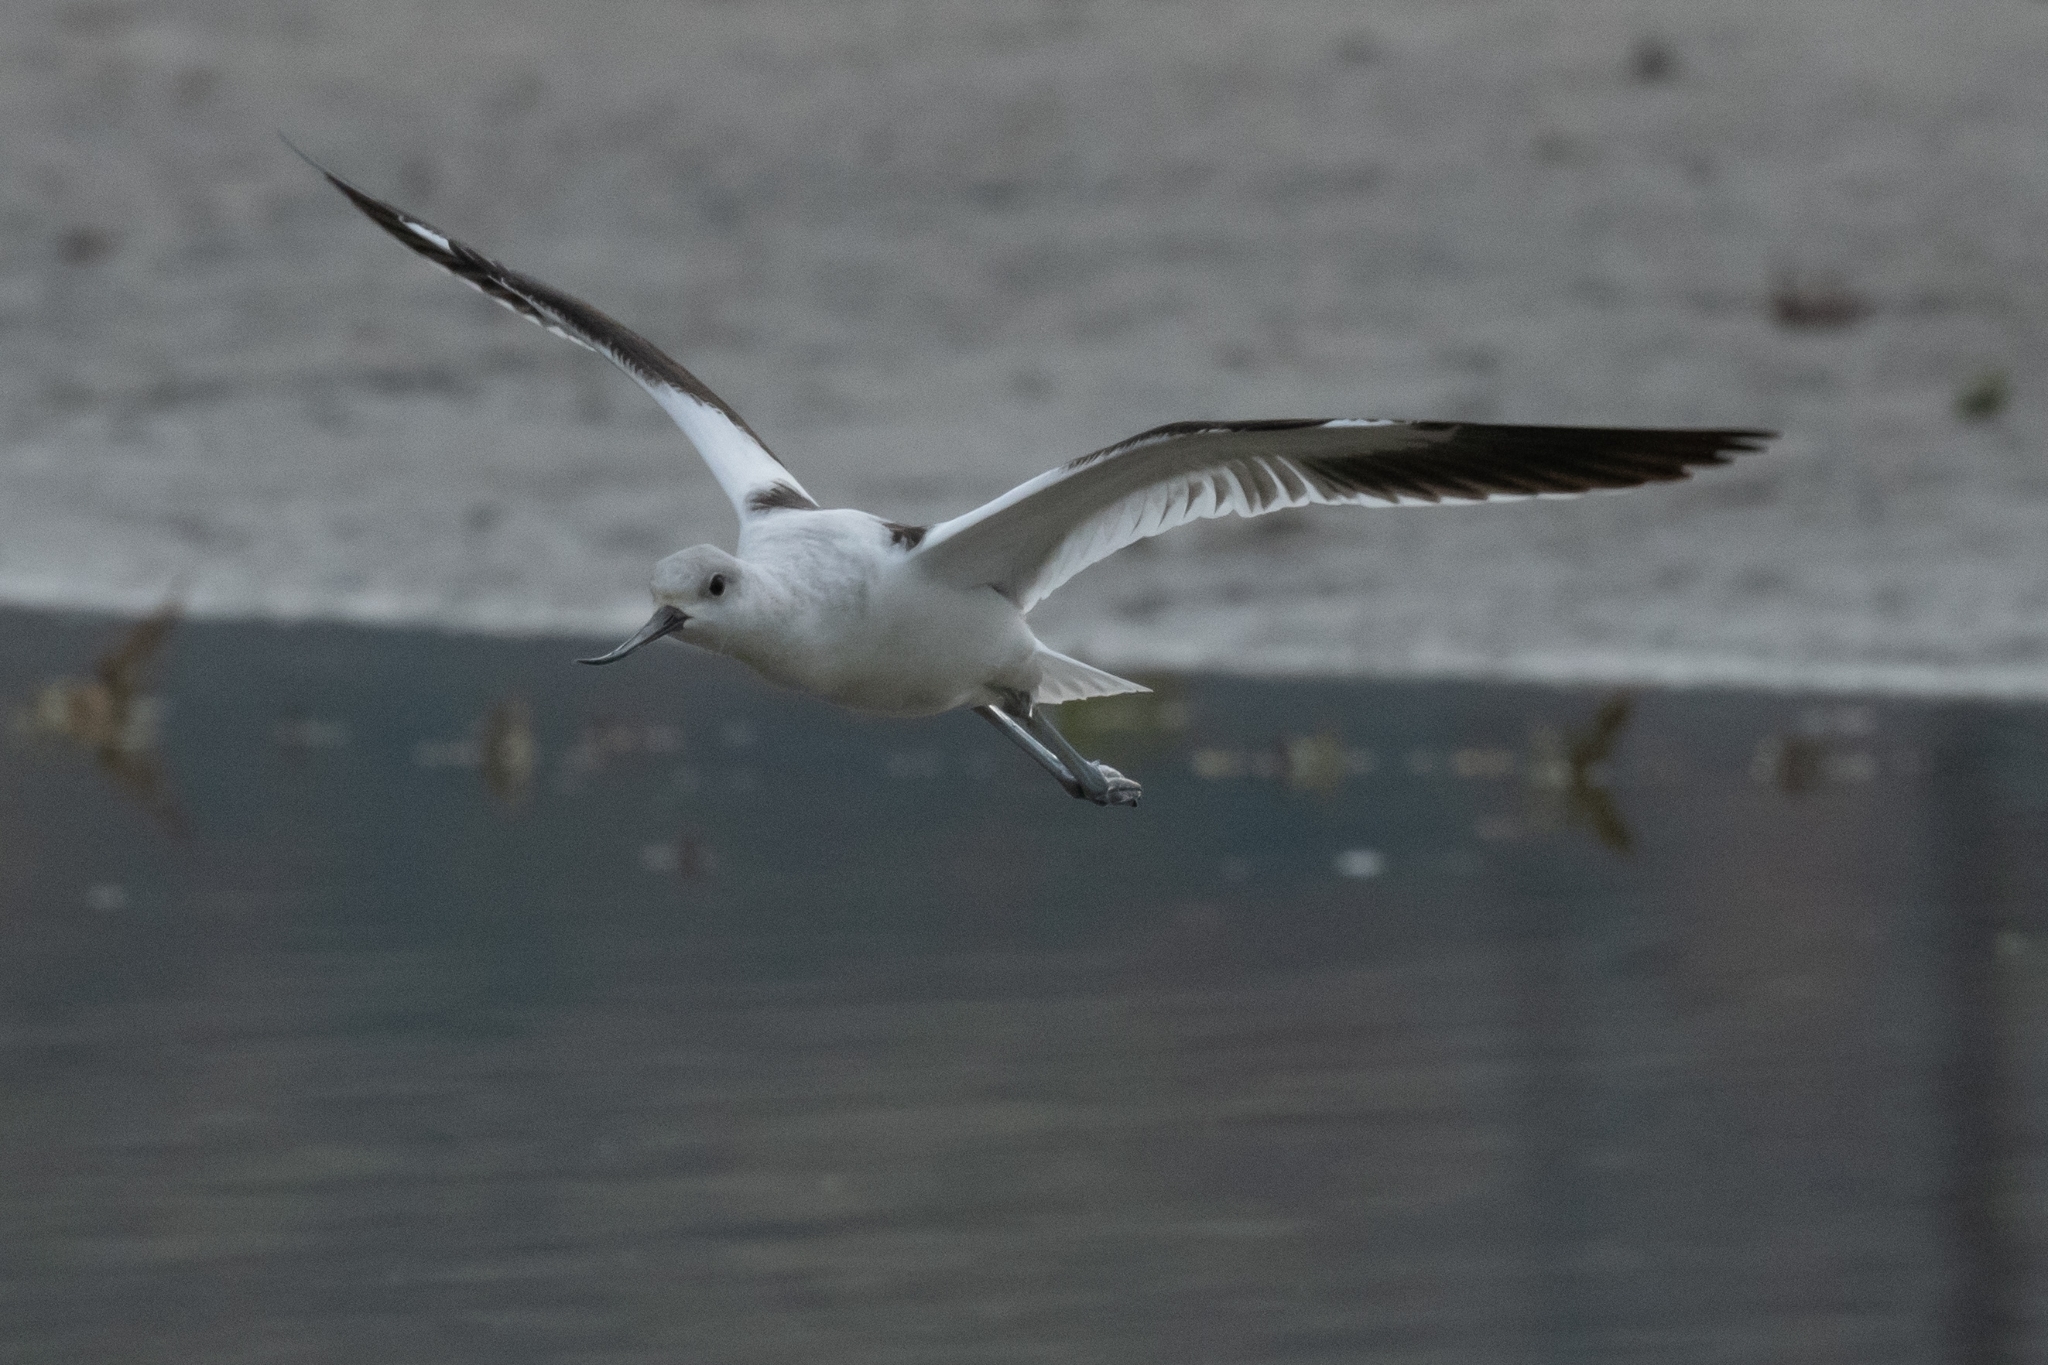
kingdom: Animalia
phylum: Chordata
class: Aves
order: Charadriiformes
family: Recurvirostridae
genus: Recurvirostra
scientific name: Recurvirostra americana
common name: American avocet
